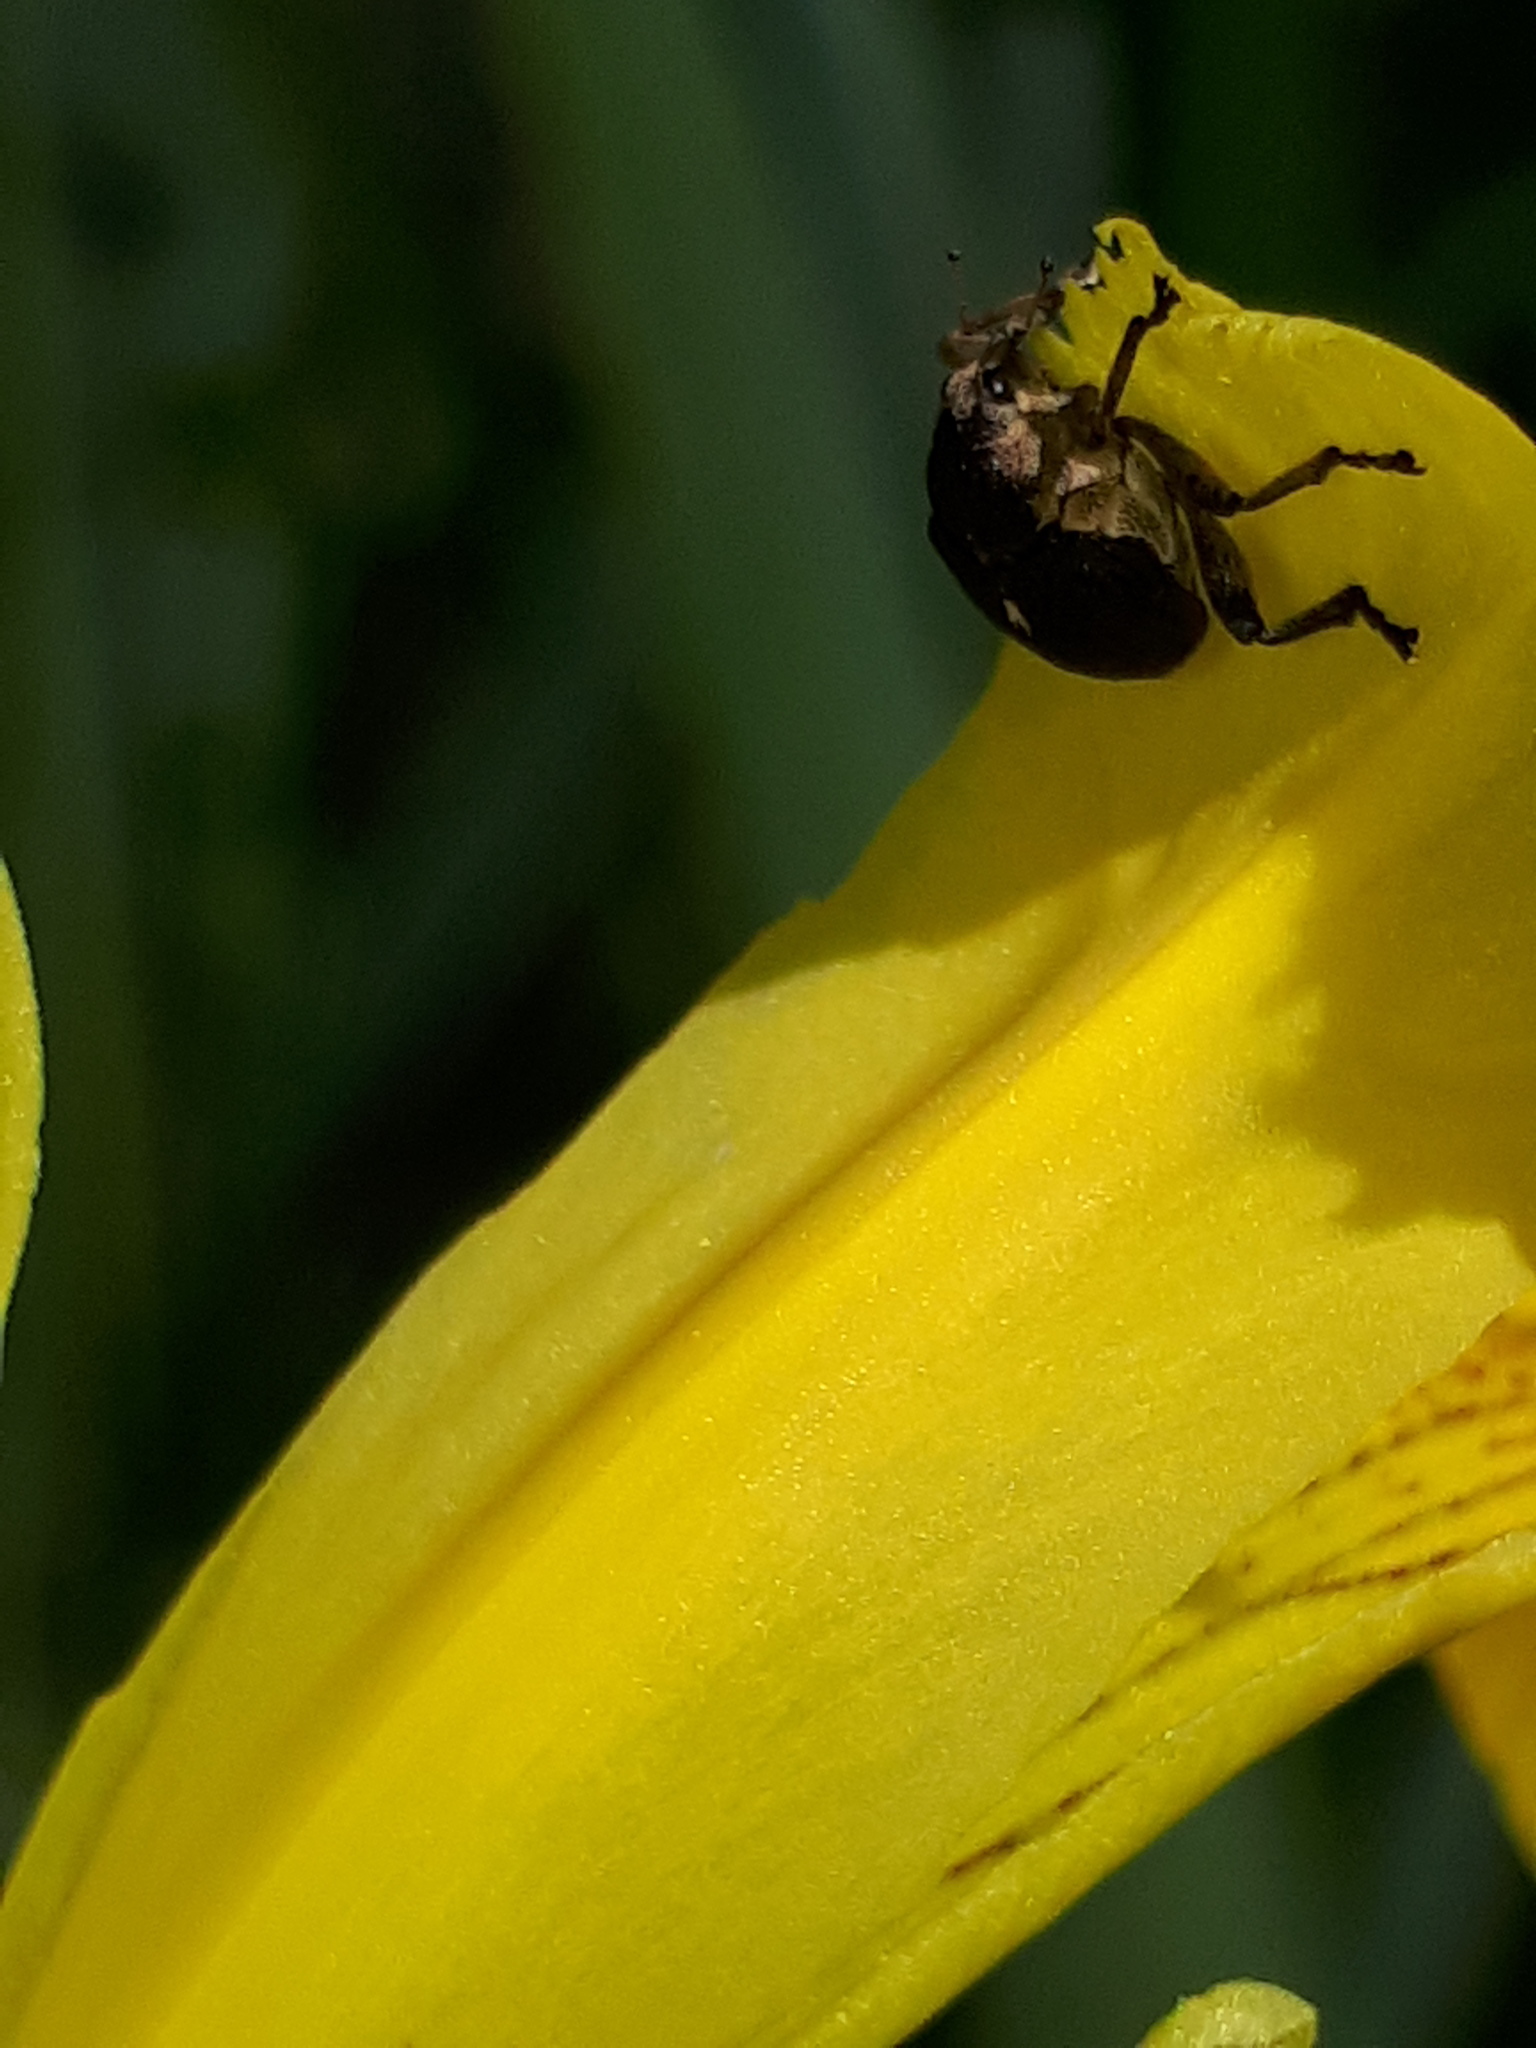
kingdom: Animalia
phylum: Arthropoda
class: Insecta
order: Coleoptera
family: Curculionidae
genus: Mononychus
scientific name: Mononychus punctumalbum
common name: Iris weevil
